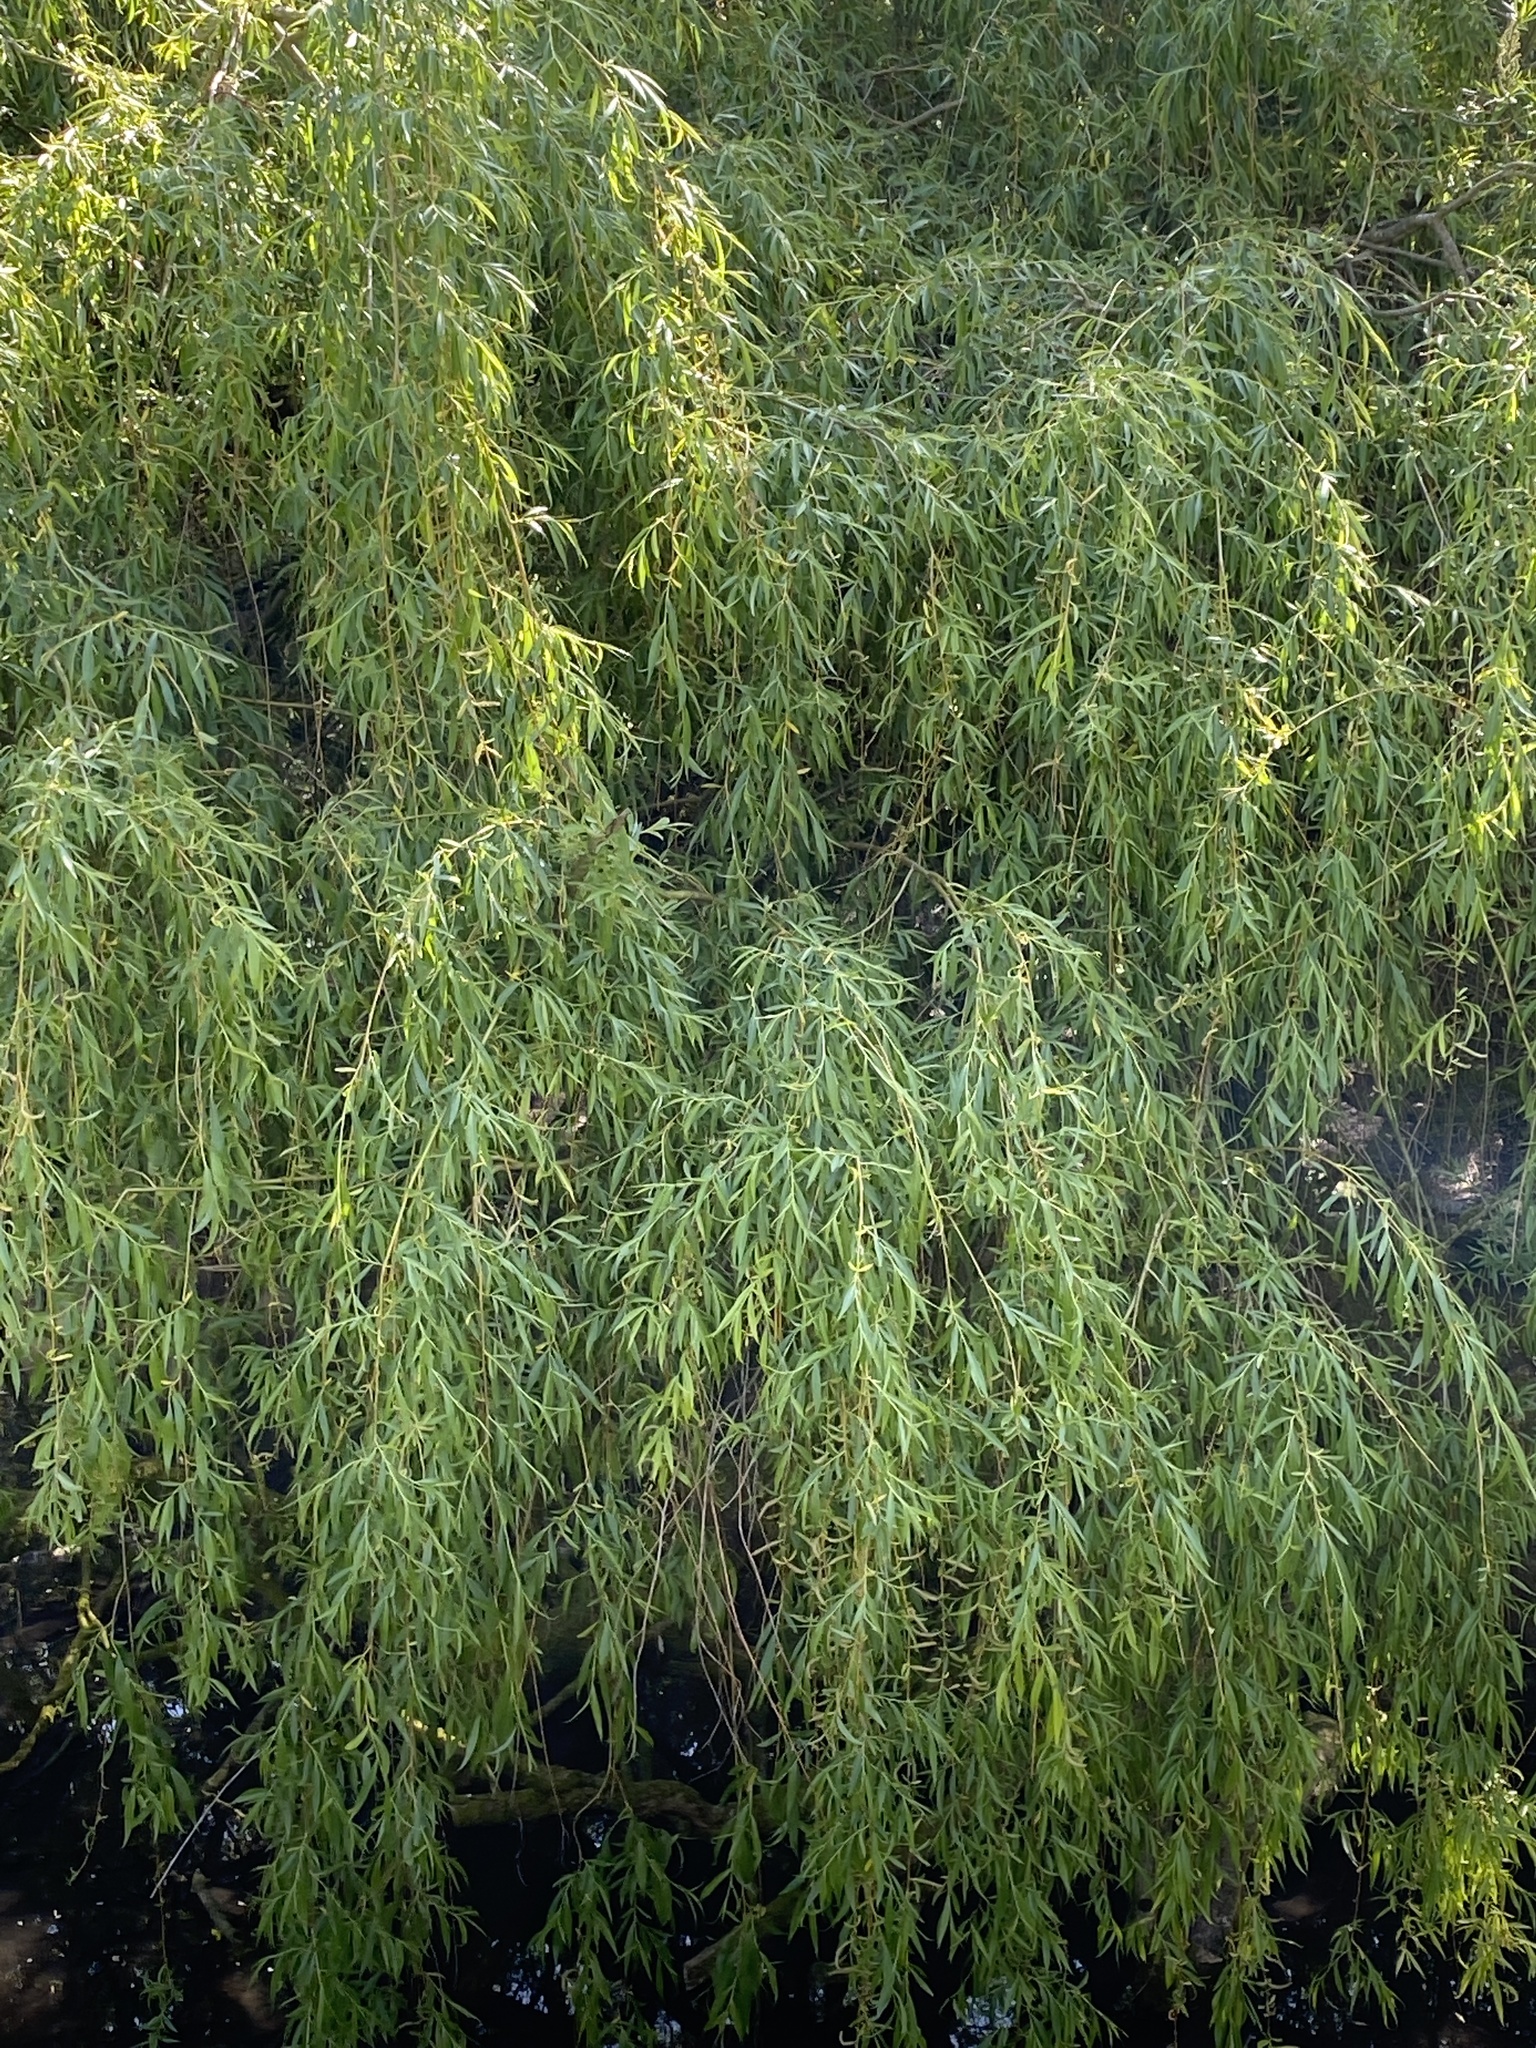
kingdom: Plantae
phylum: Tracheophyta
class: Magnoliopsida
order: Malpighiales
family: Salicaceae
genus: Salix
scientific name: Salix pendulina
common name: Wisconsin weeping willow
